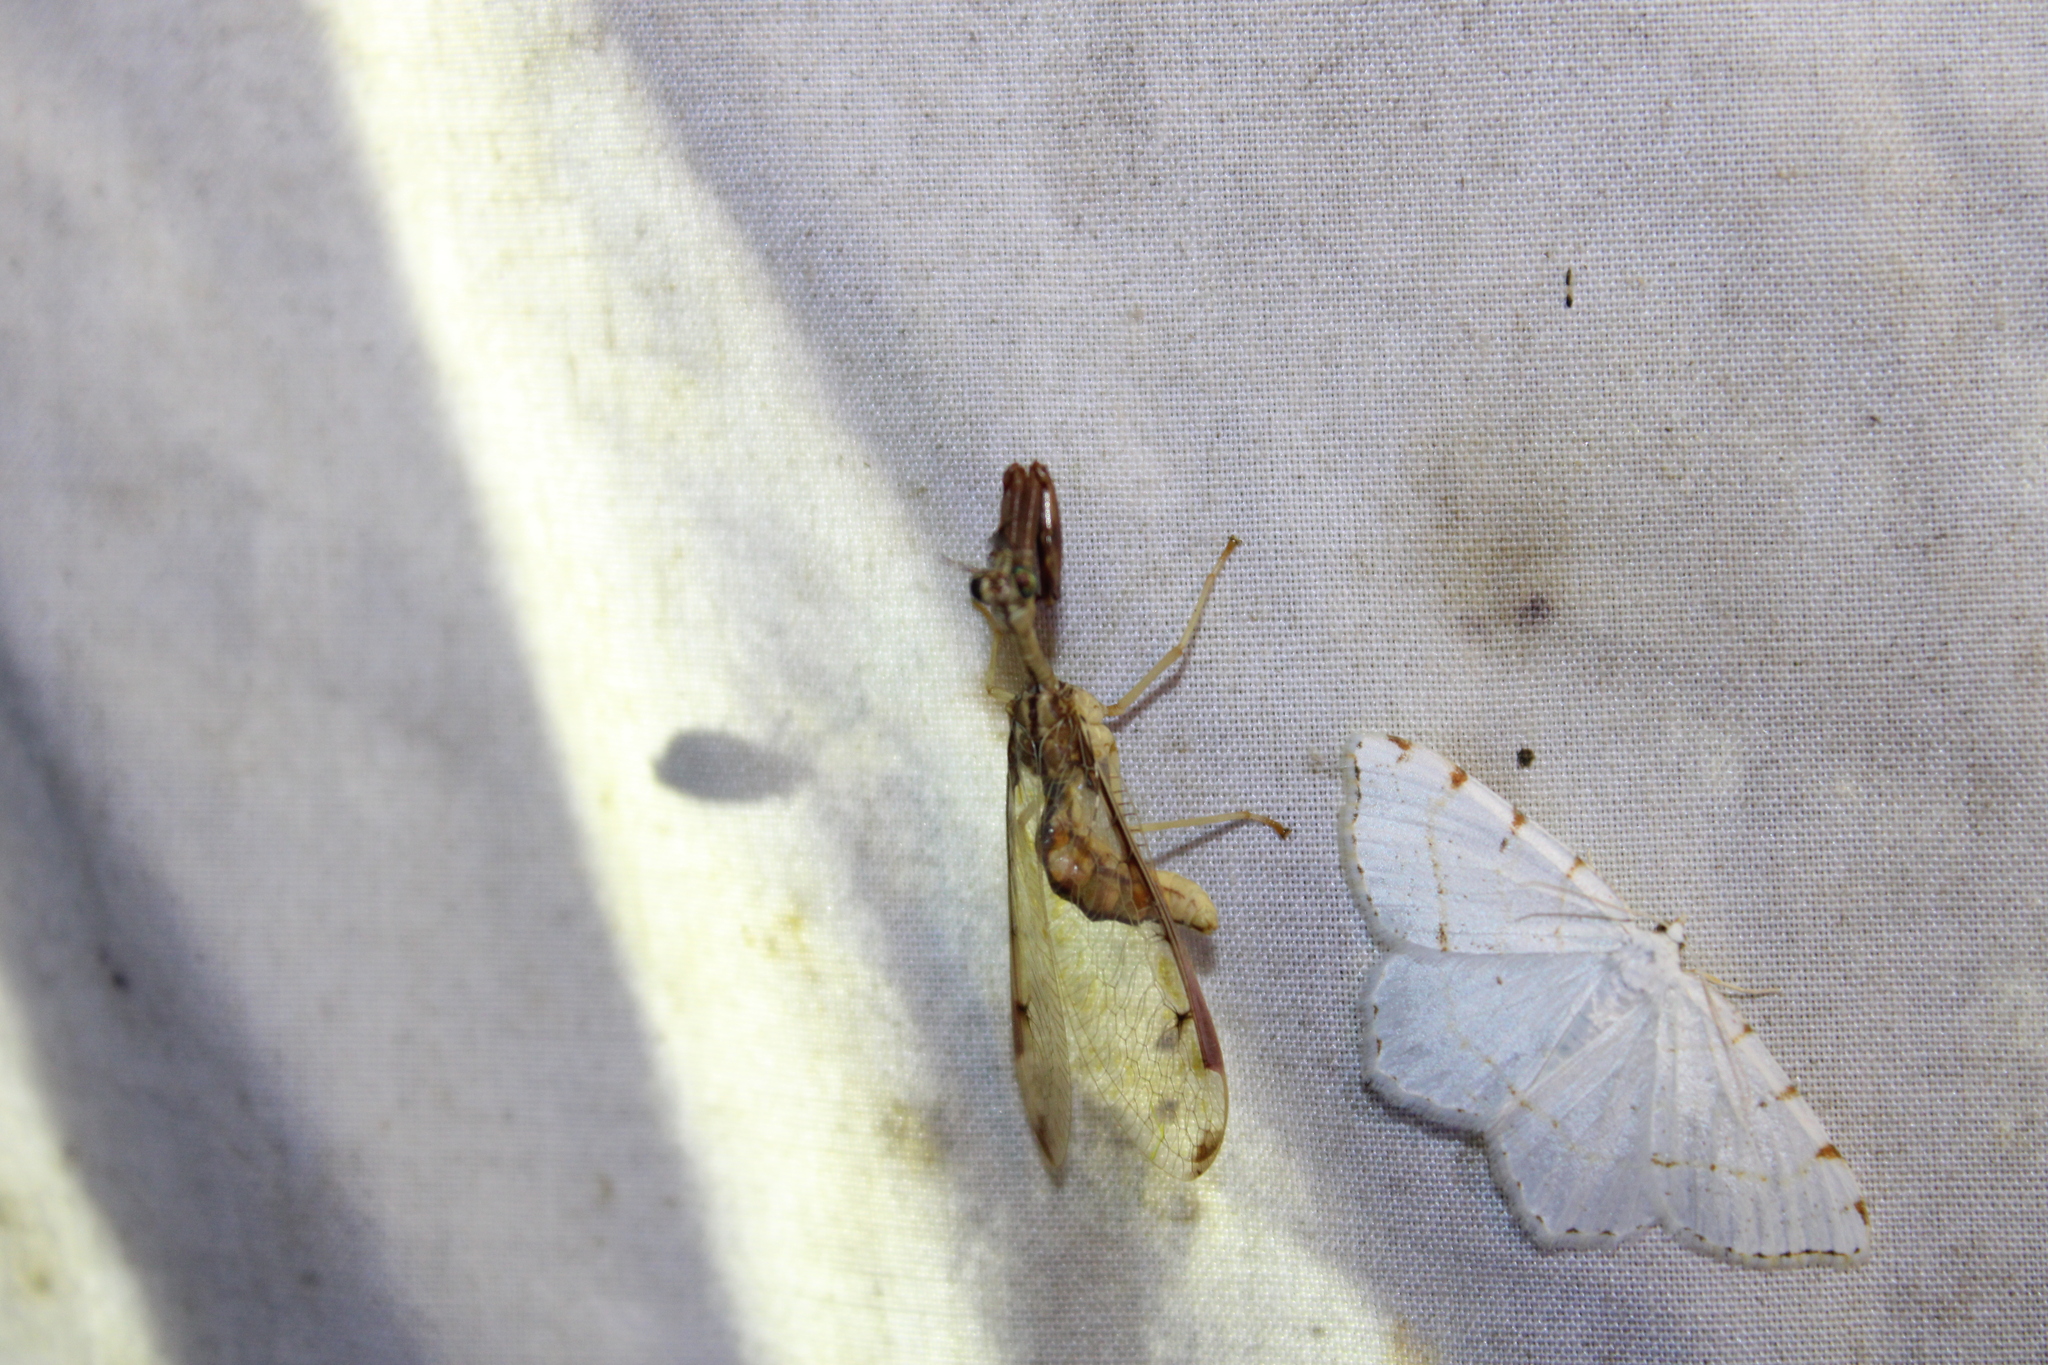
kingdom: Animalia
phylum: Arthropoda
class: Insecta
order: Neuroptera
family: Mantispidae
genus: Dicromantispa
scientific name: Dicromantispa interrupta
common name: Four-spotted mantidfly
